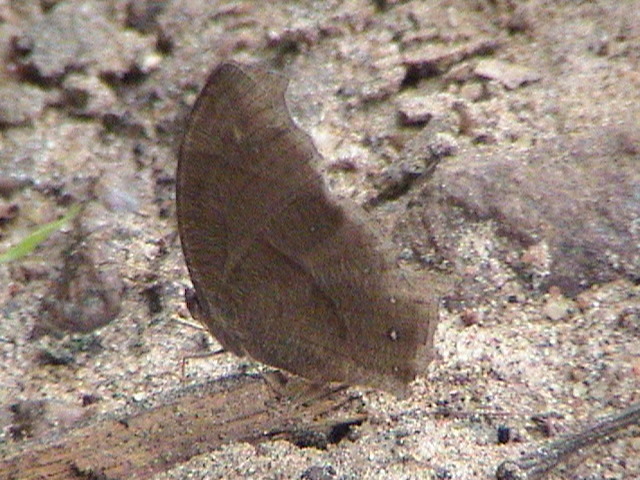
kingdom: Animalia
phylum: Arthropoda
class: Insecta
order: Lepidoptera
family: Nymphalidae
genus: Melanitis
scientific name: Melanitis phedima
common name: Dark evening brown
